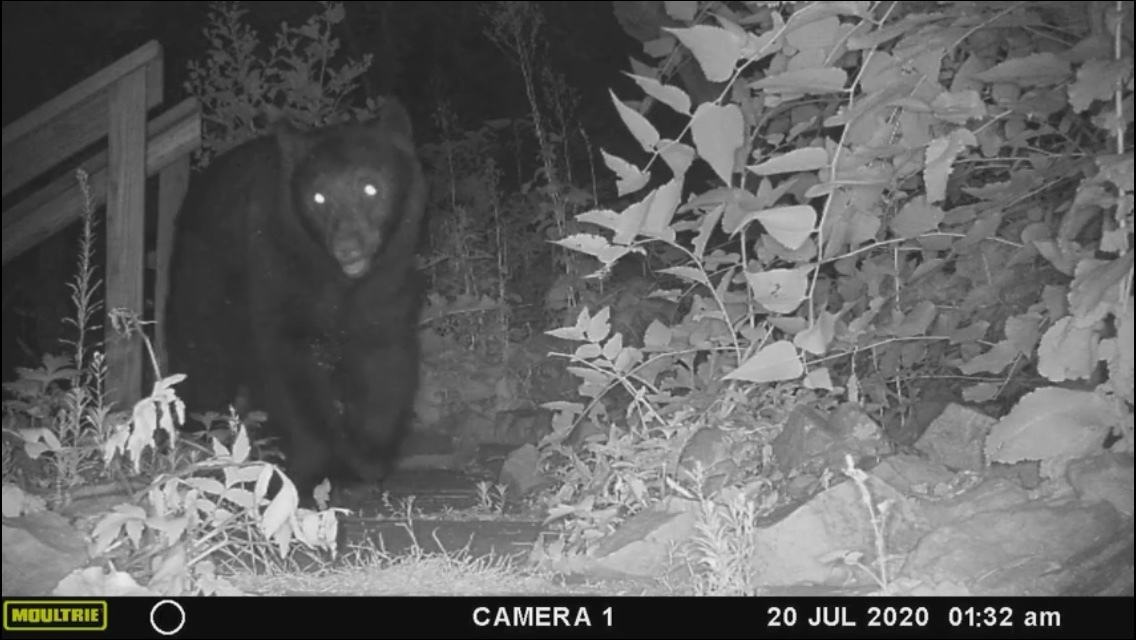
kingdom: Animalia
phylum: Chordata
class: Mammalia
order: Carnivora
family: Ursidae
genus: Ursus
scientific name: Ursus americanus
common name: American black bear
